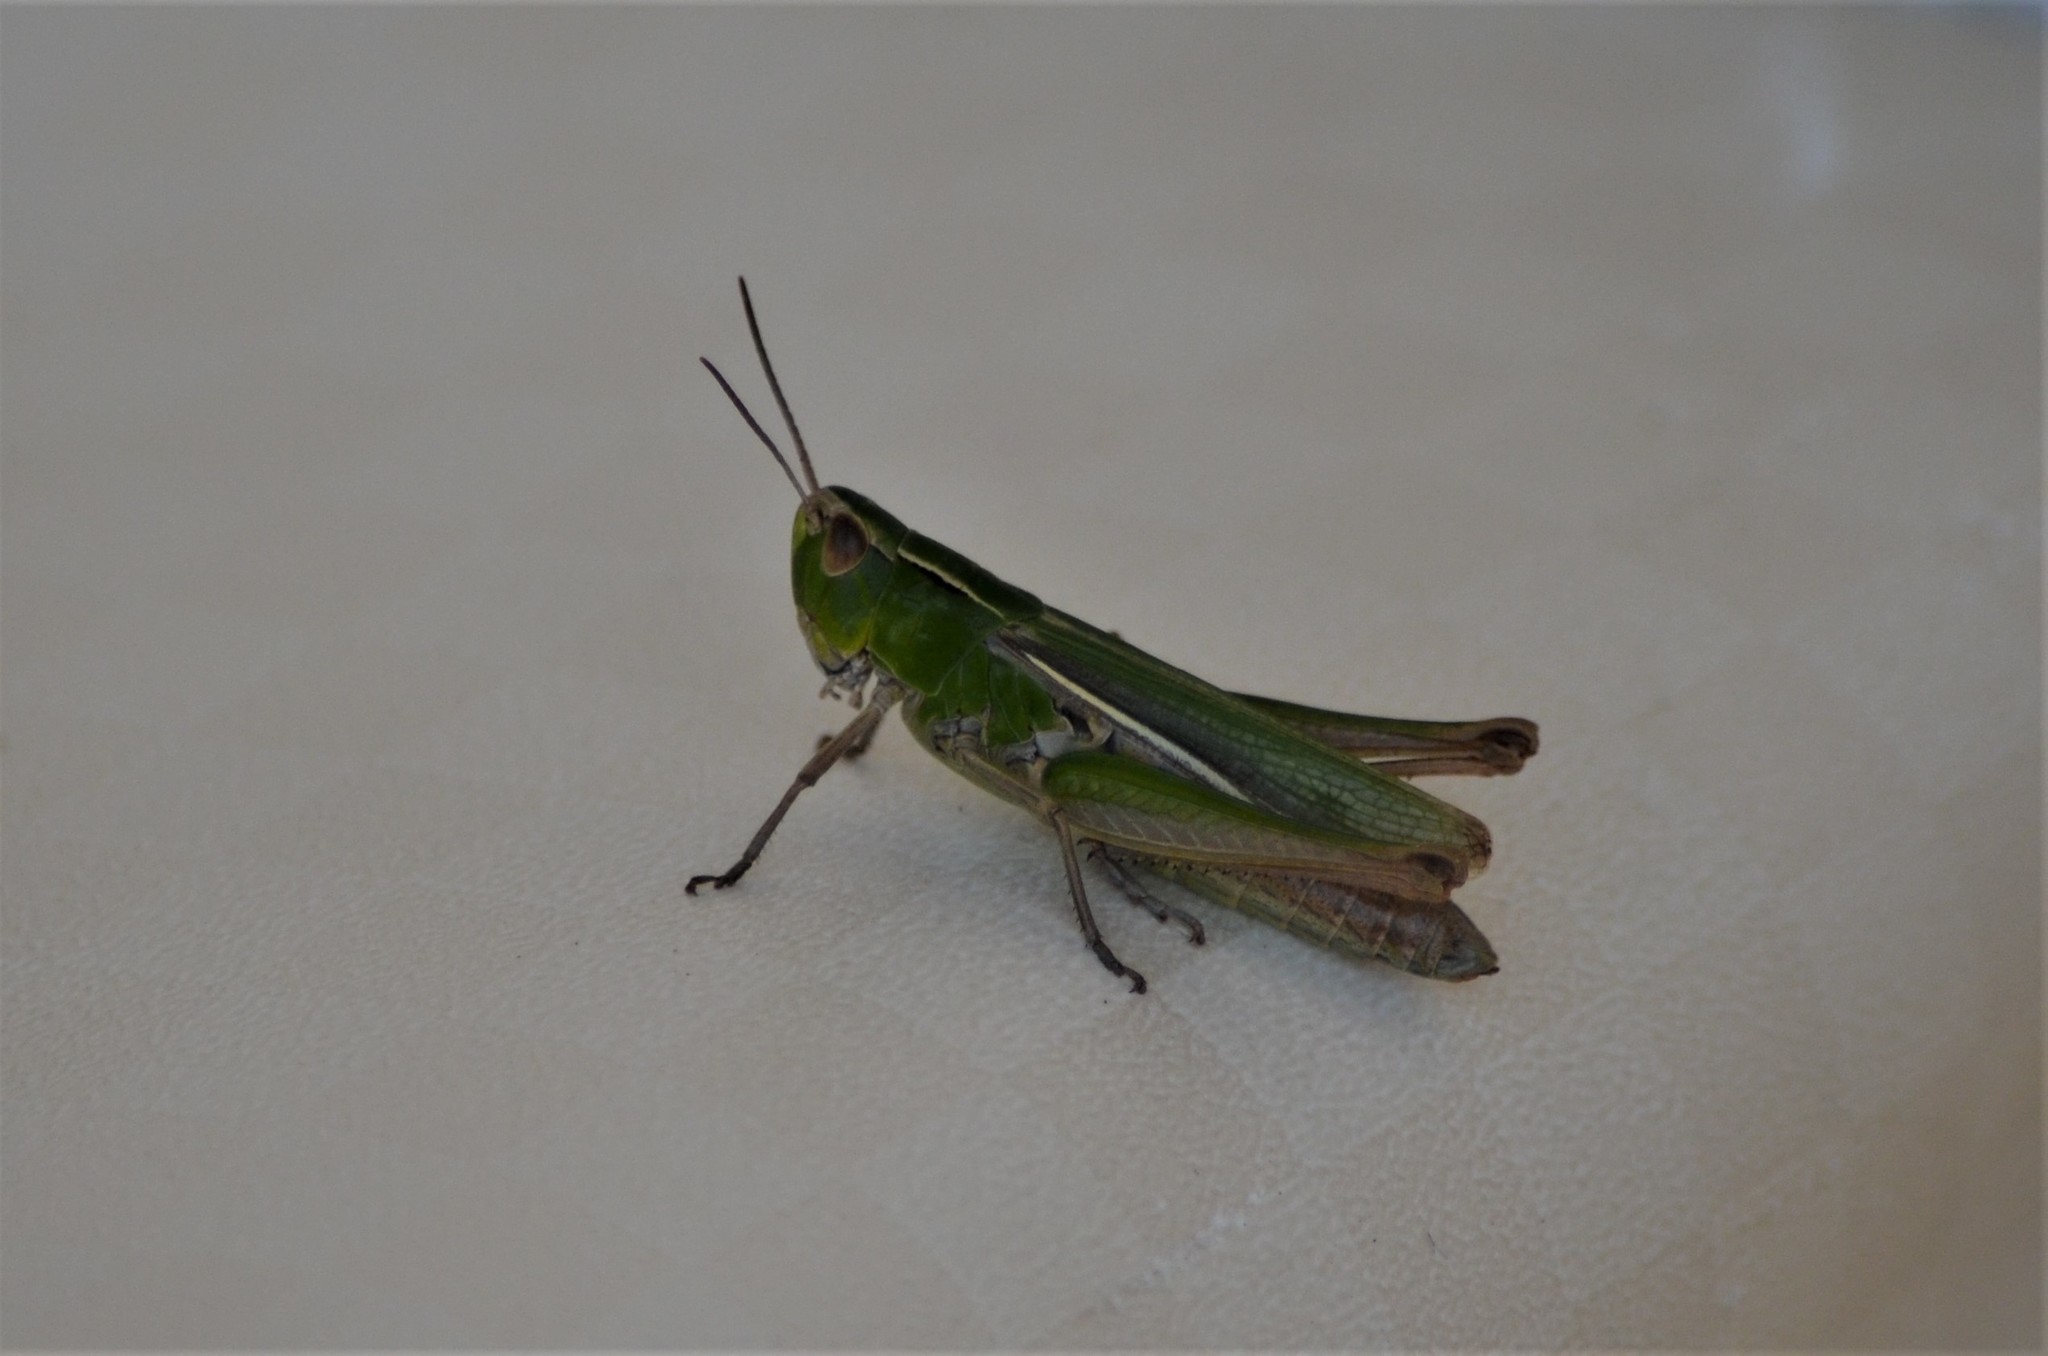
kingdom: Animalia
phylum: Arthropoda
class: Insecta
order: Orthoptera
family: Acrididae
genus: Chorthippus
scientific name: Chorthippus albomarginatus
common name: Lesser marsh grasshopper
